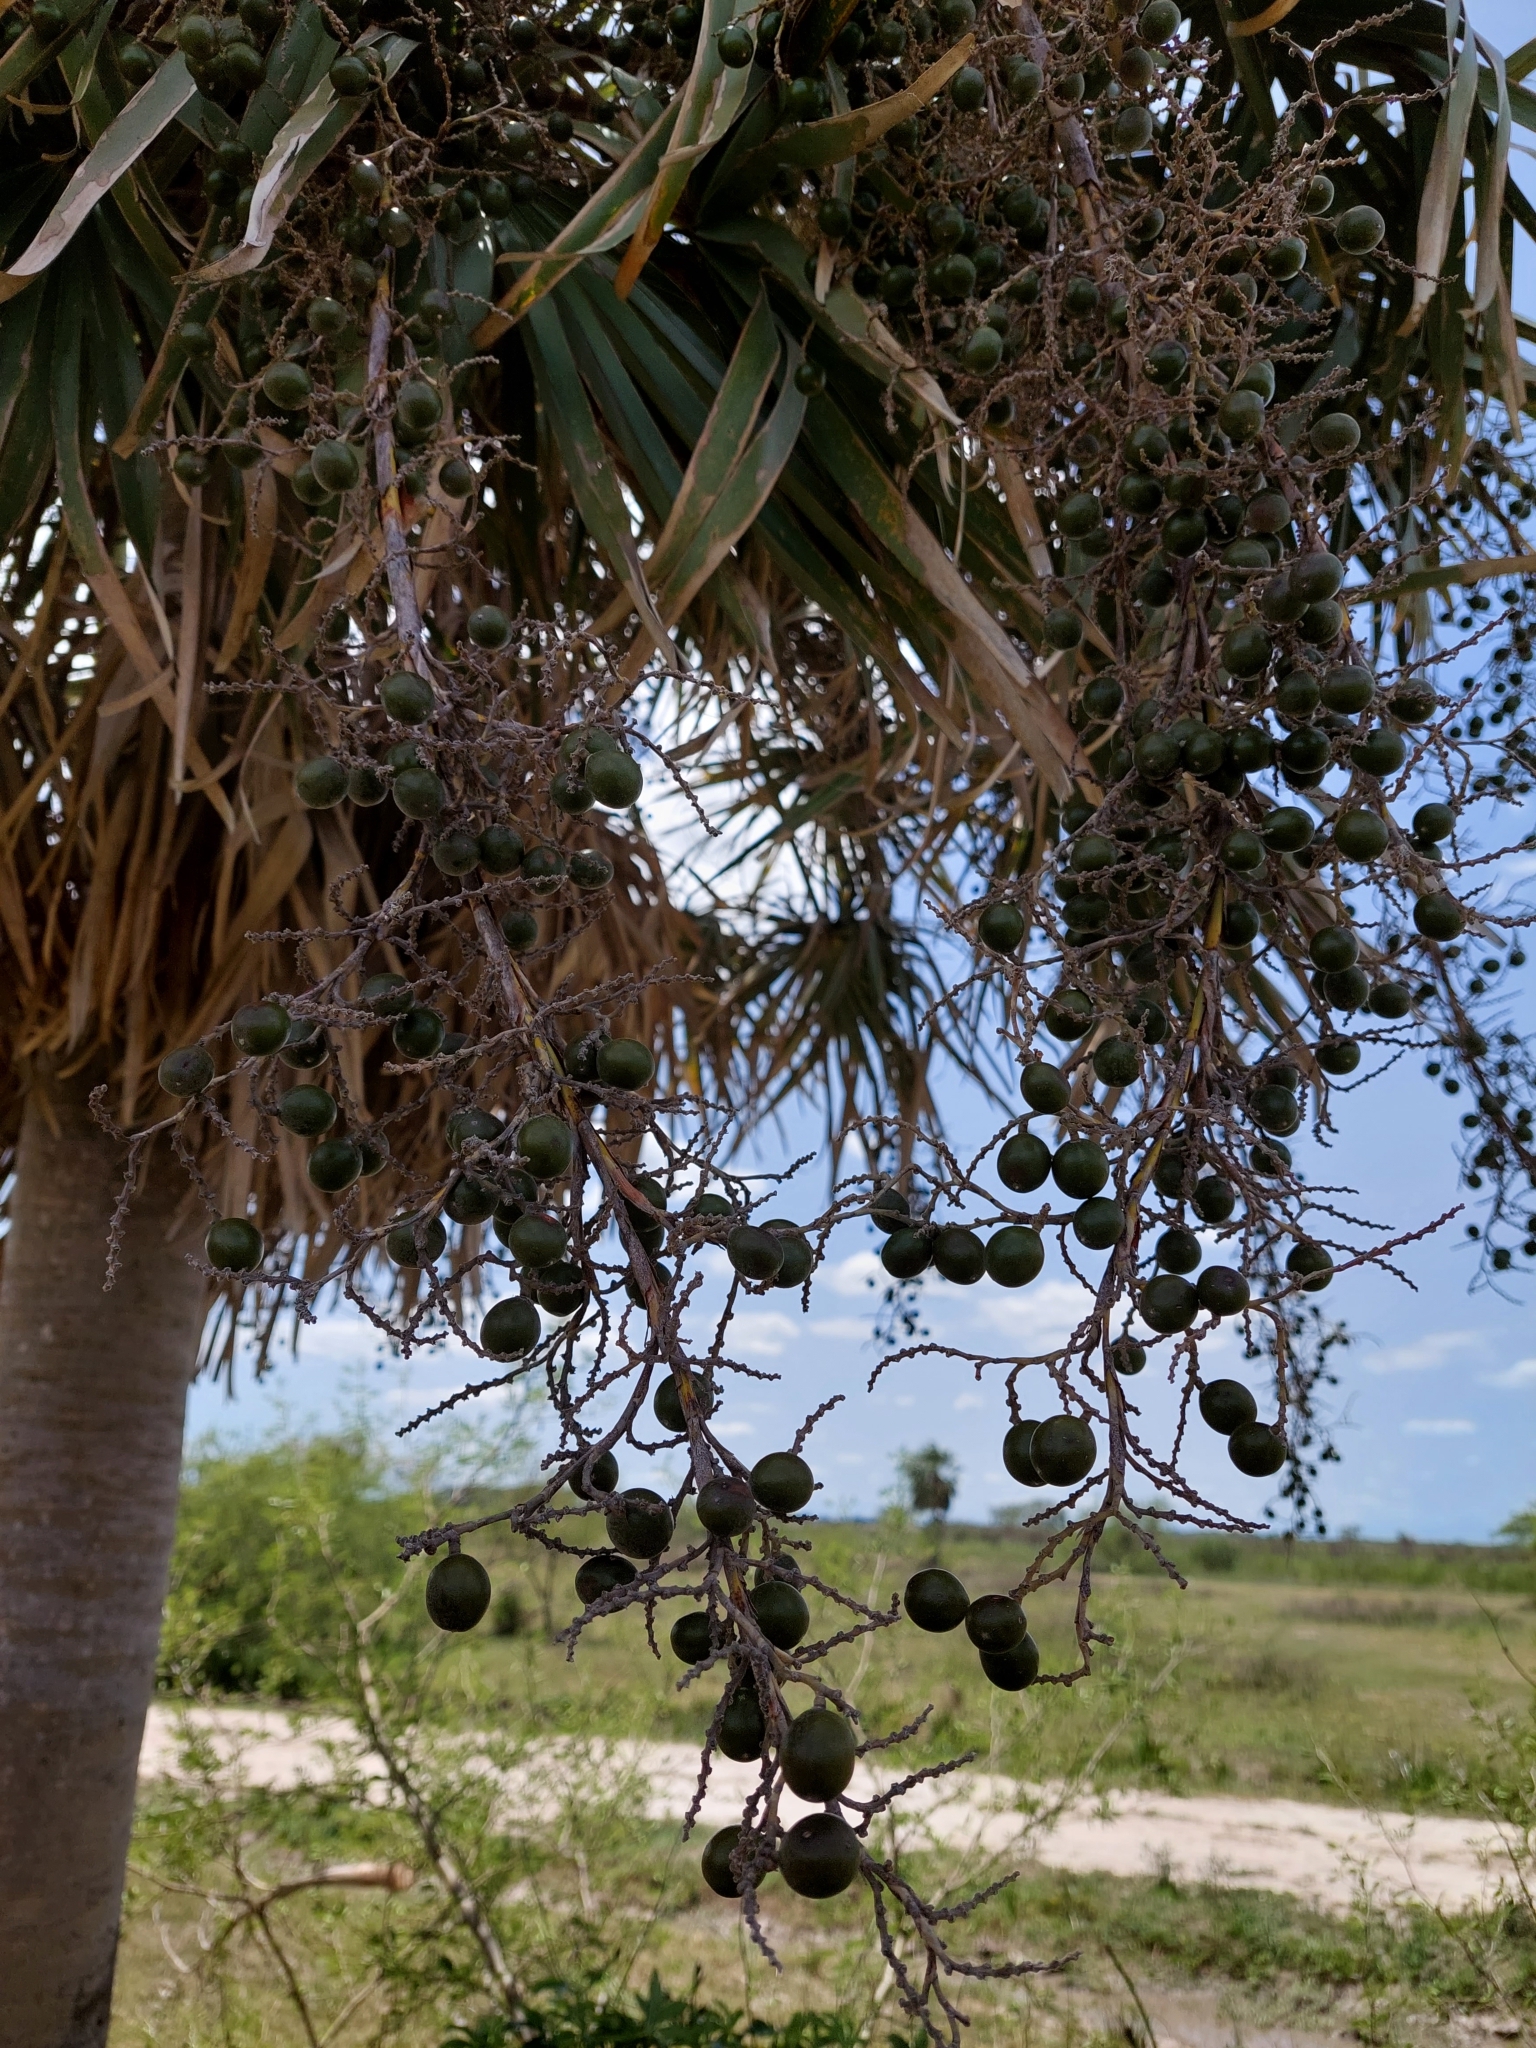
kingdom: Plantae
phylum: Tracheophyta
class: Liliopsida
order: Arecales
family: Arecaceae
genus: Copernicia
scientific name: Copernicia alba
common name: Caranday palm
